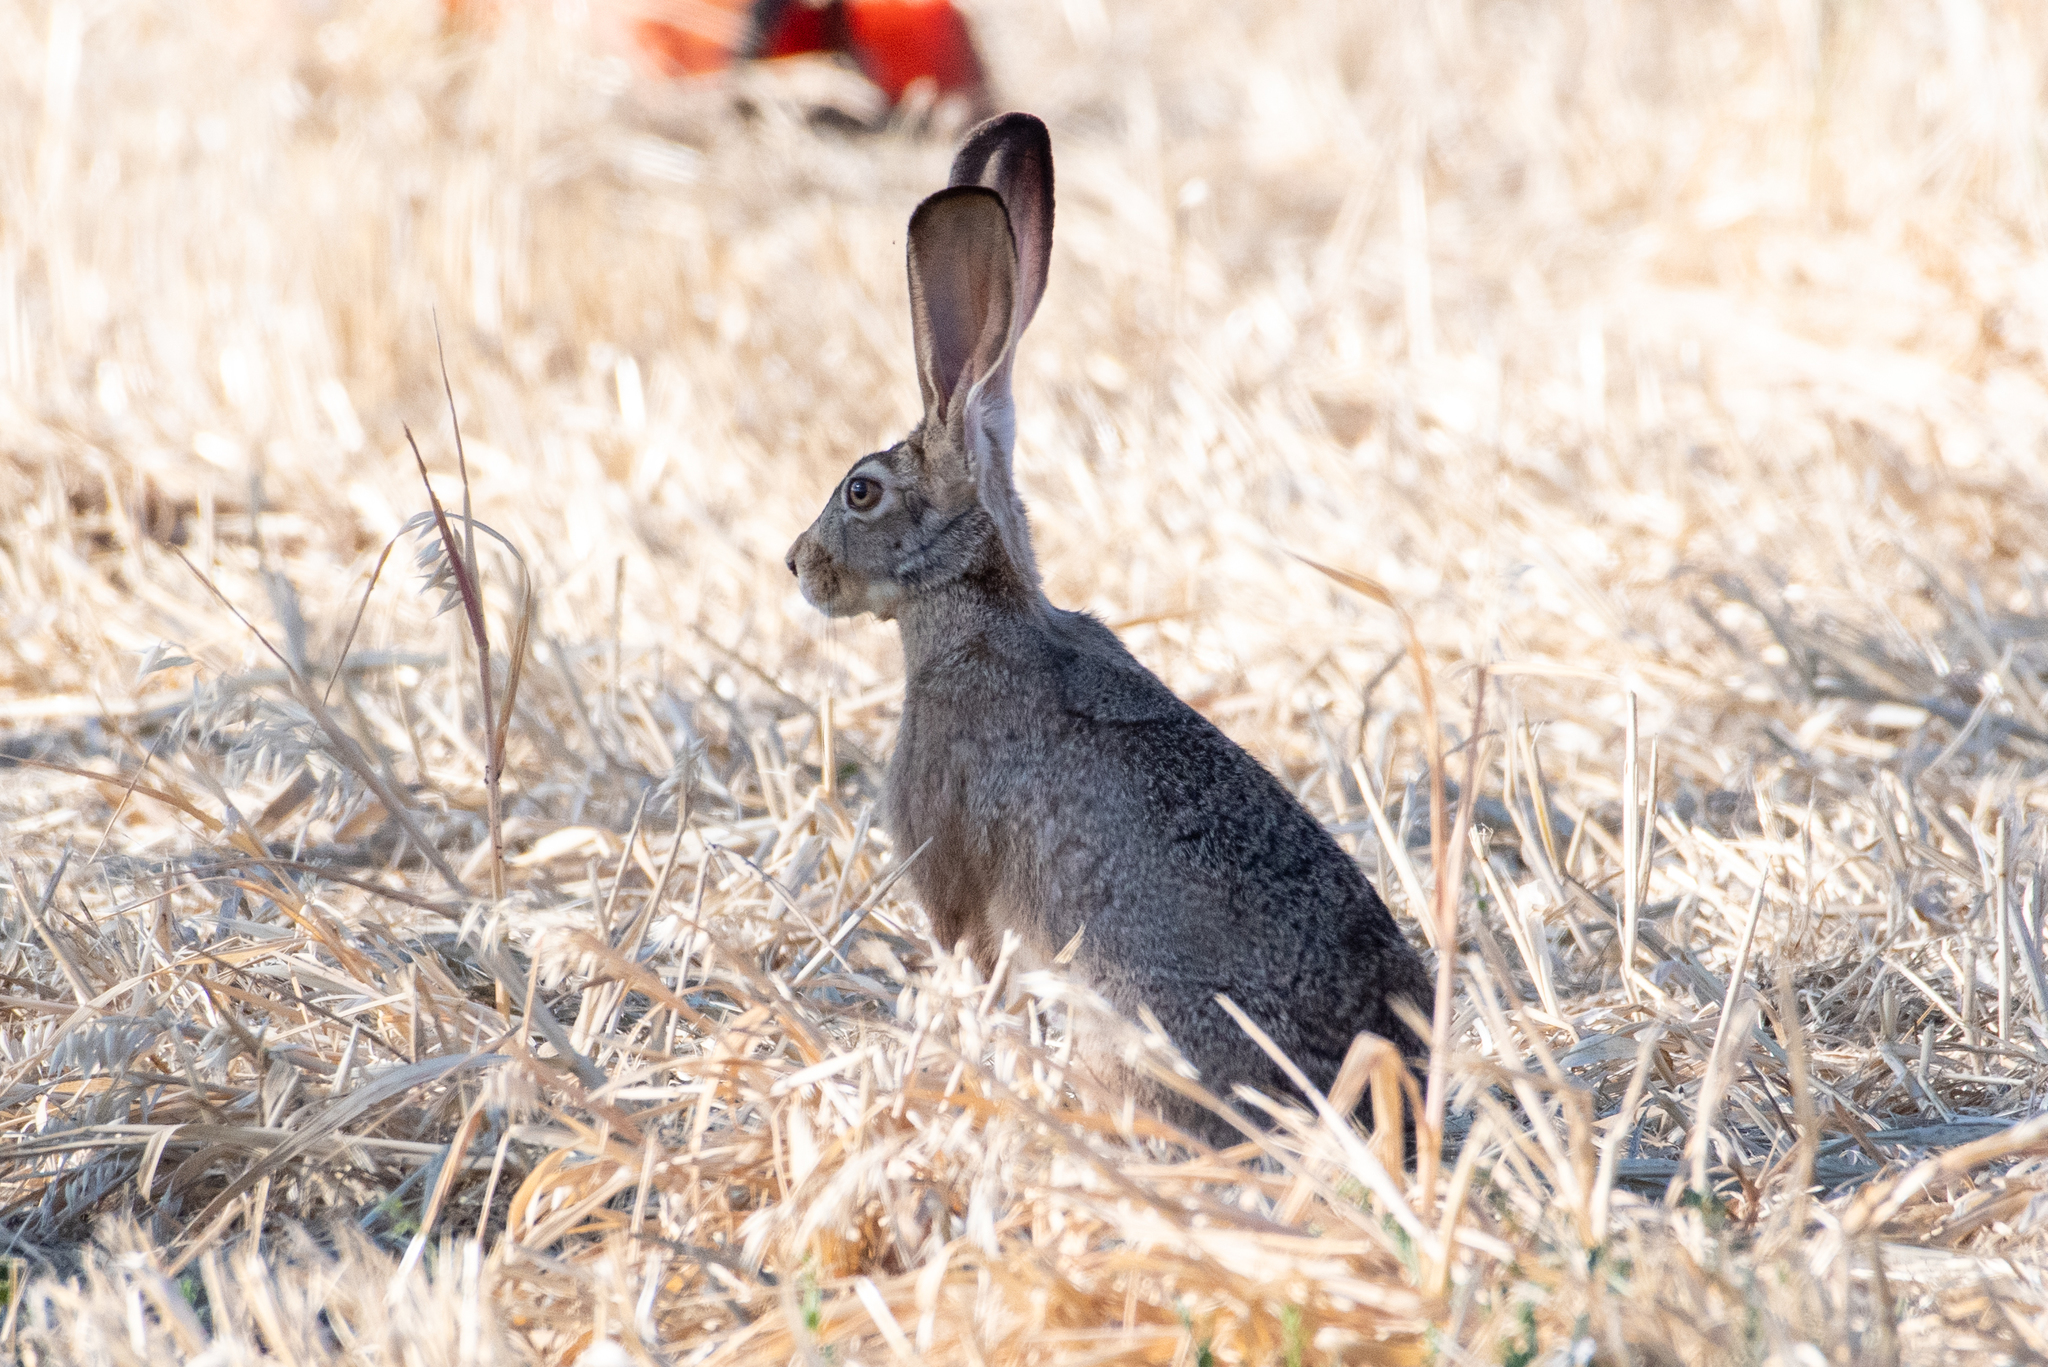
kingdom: Animalia
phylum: Chordata
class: Mammalia
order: Lagomorpha
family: Leporidae
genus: Lepus
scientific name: Lepus californicus
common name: Black-tailed jackrabbit
